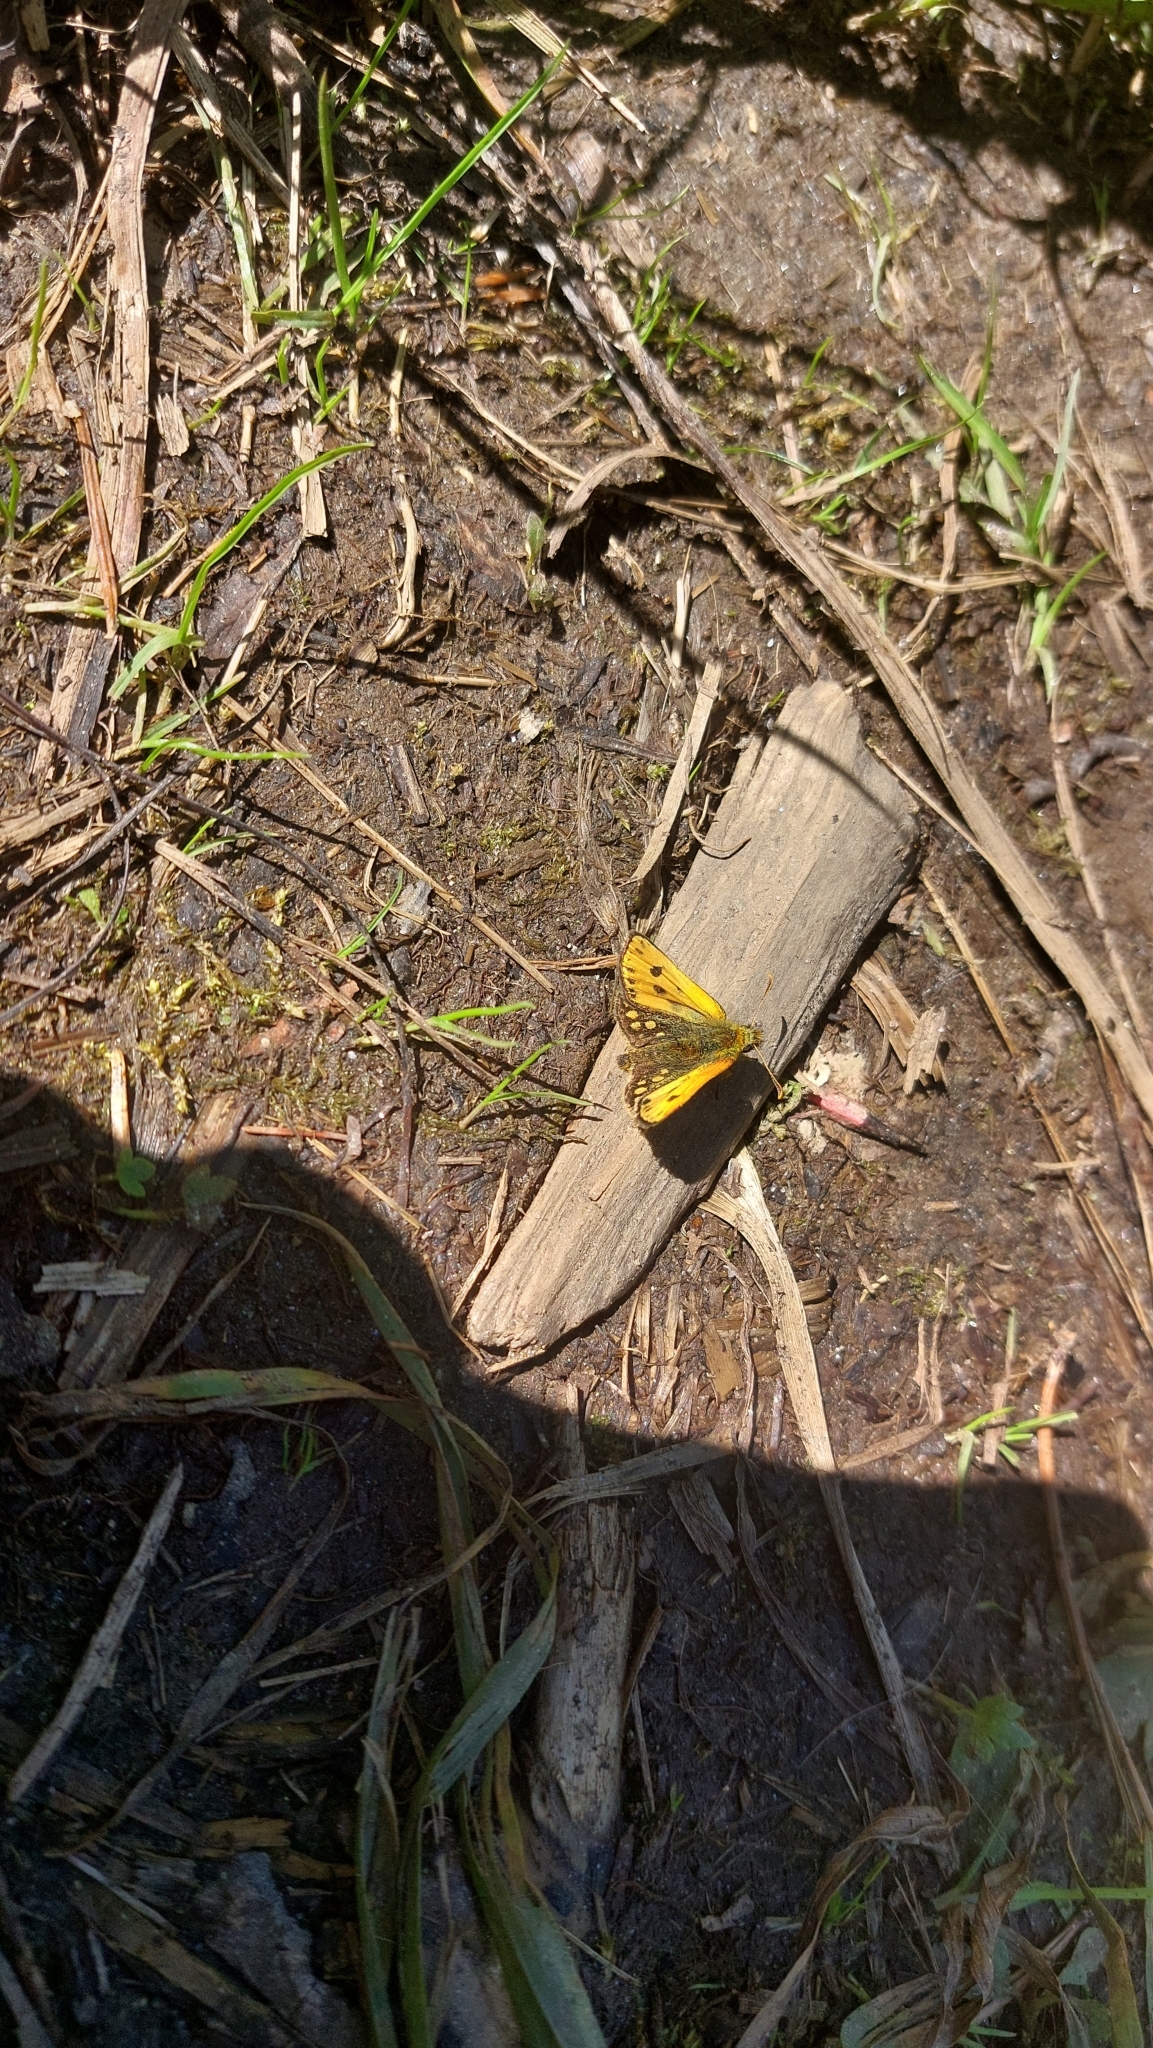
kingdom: Animalia
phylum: Arthropoda
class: Insecta
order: Lepidoptera
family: Hesperiidae
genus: Carterocephalus
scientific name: Carterocephalus silvicola
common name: Northern chequered skipper
